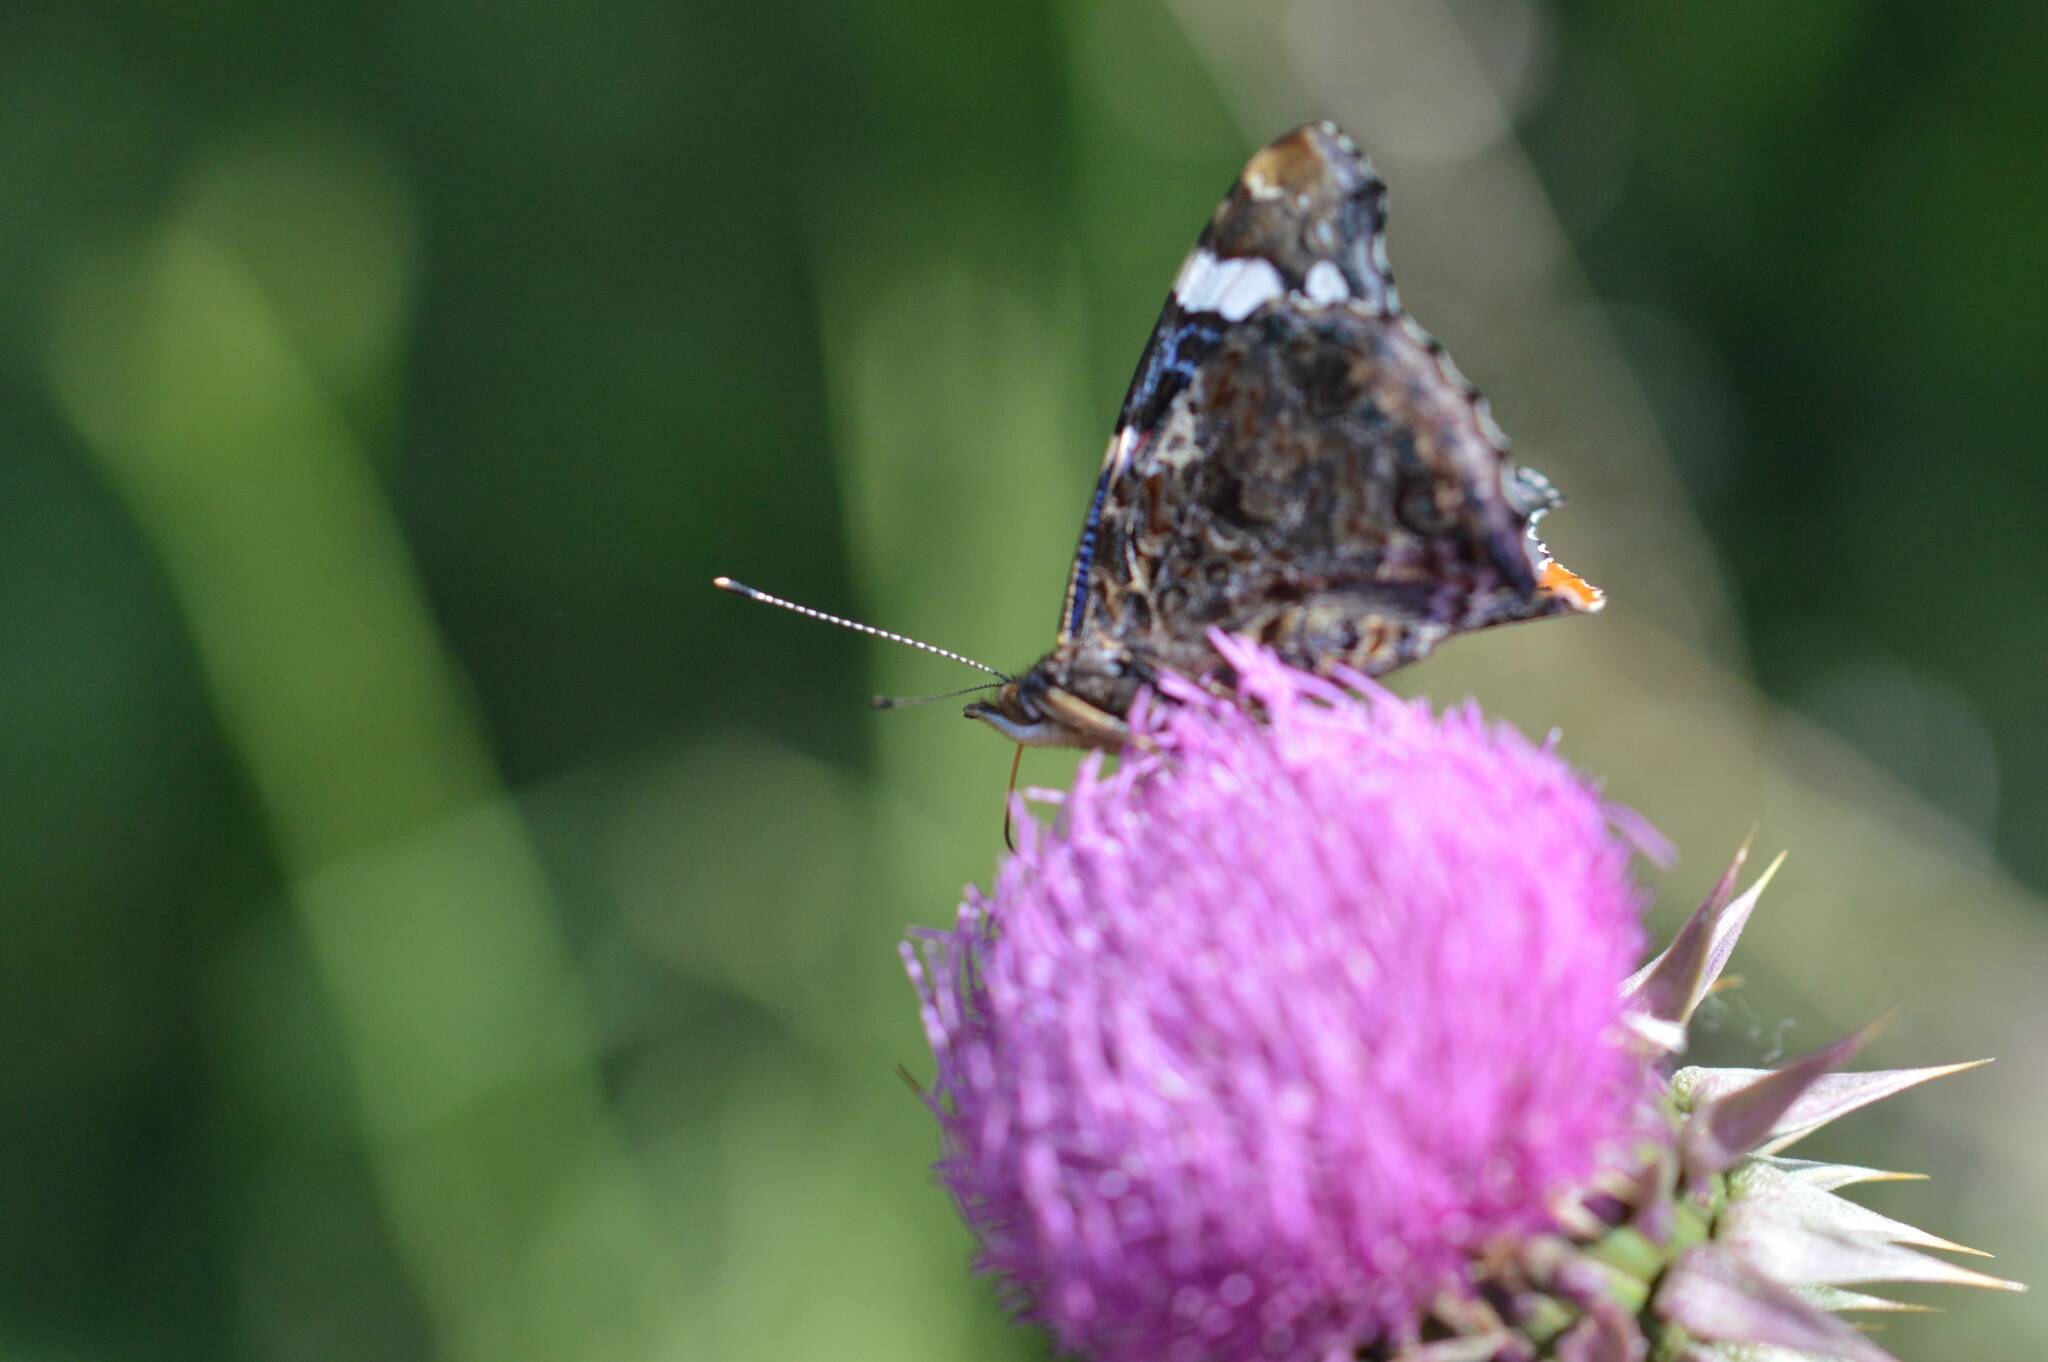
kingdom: Animalia
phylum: Arthropoda
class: Insecta
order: Lepidoptera
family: Nymphalidae
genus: Vanessa
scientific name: Vanessa atalanta
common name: Red admiral
